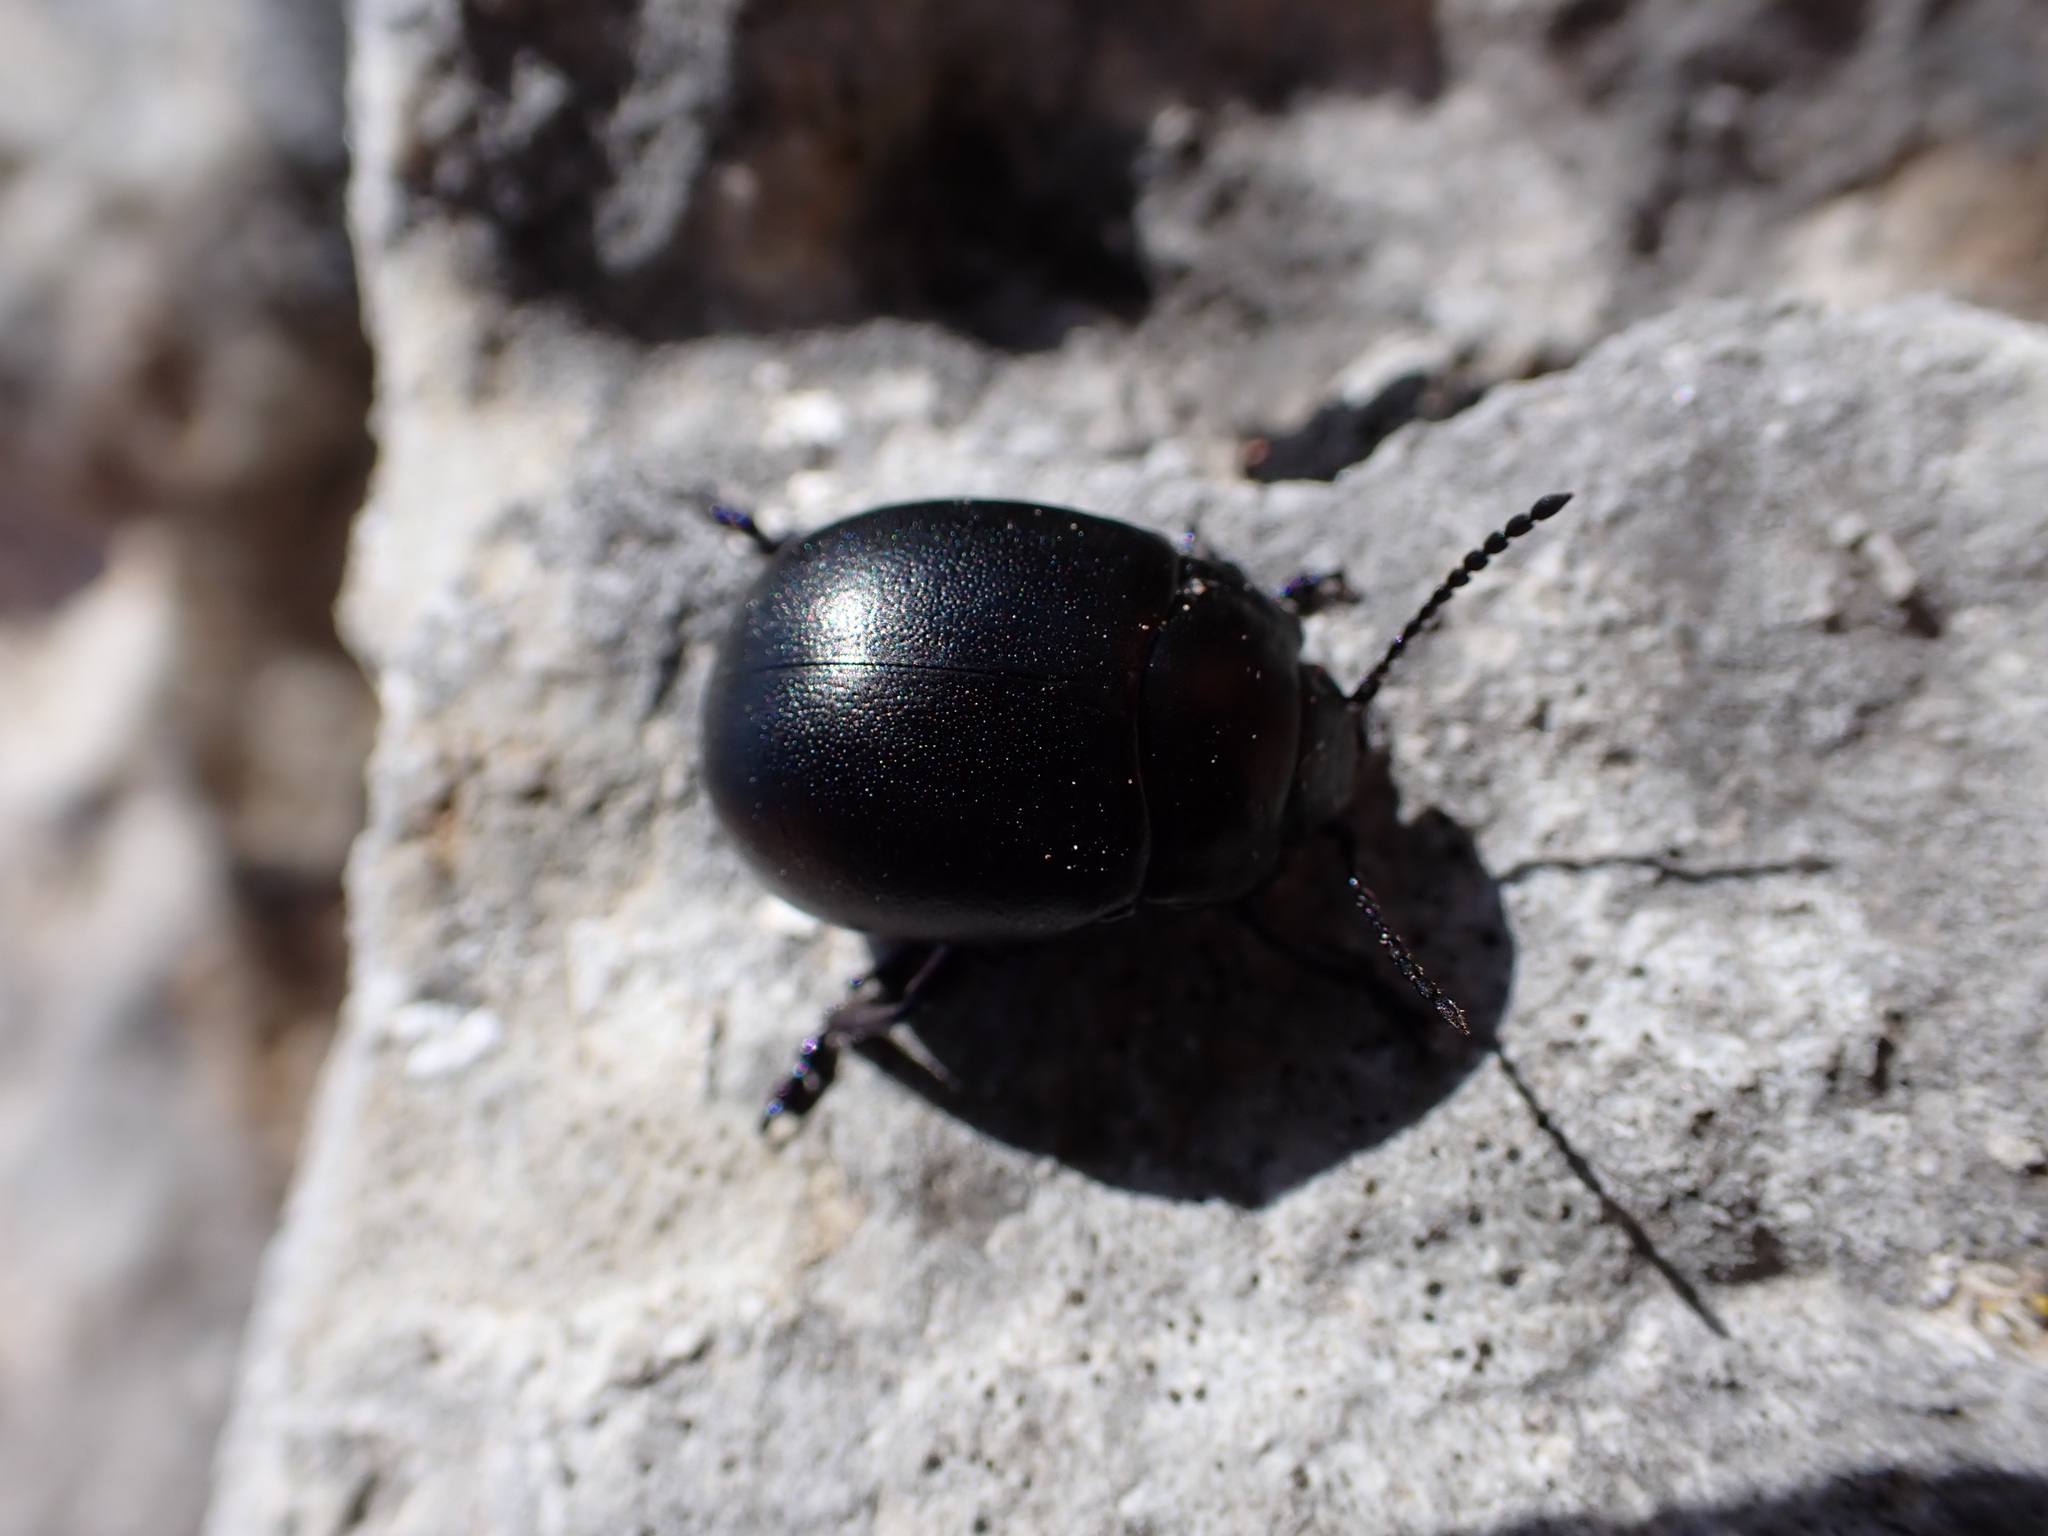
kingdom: Animalia
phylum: Arthropoda
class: Insecta
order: Coleoptera
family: Chrysomelidae
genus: Chrysolina
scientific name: Chrysolina obscurella
